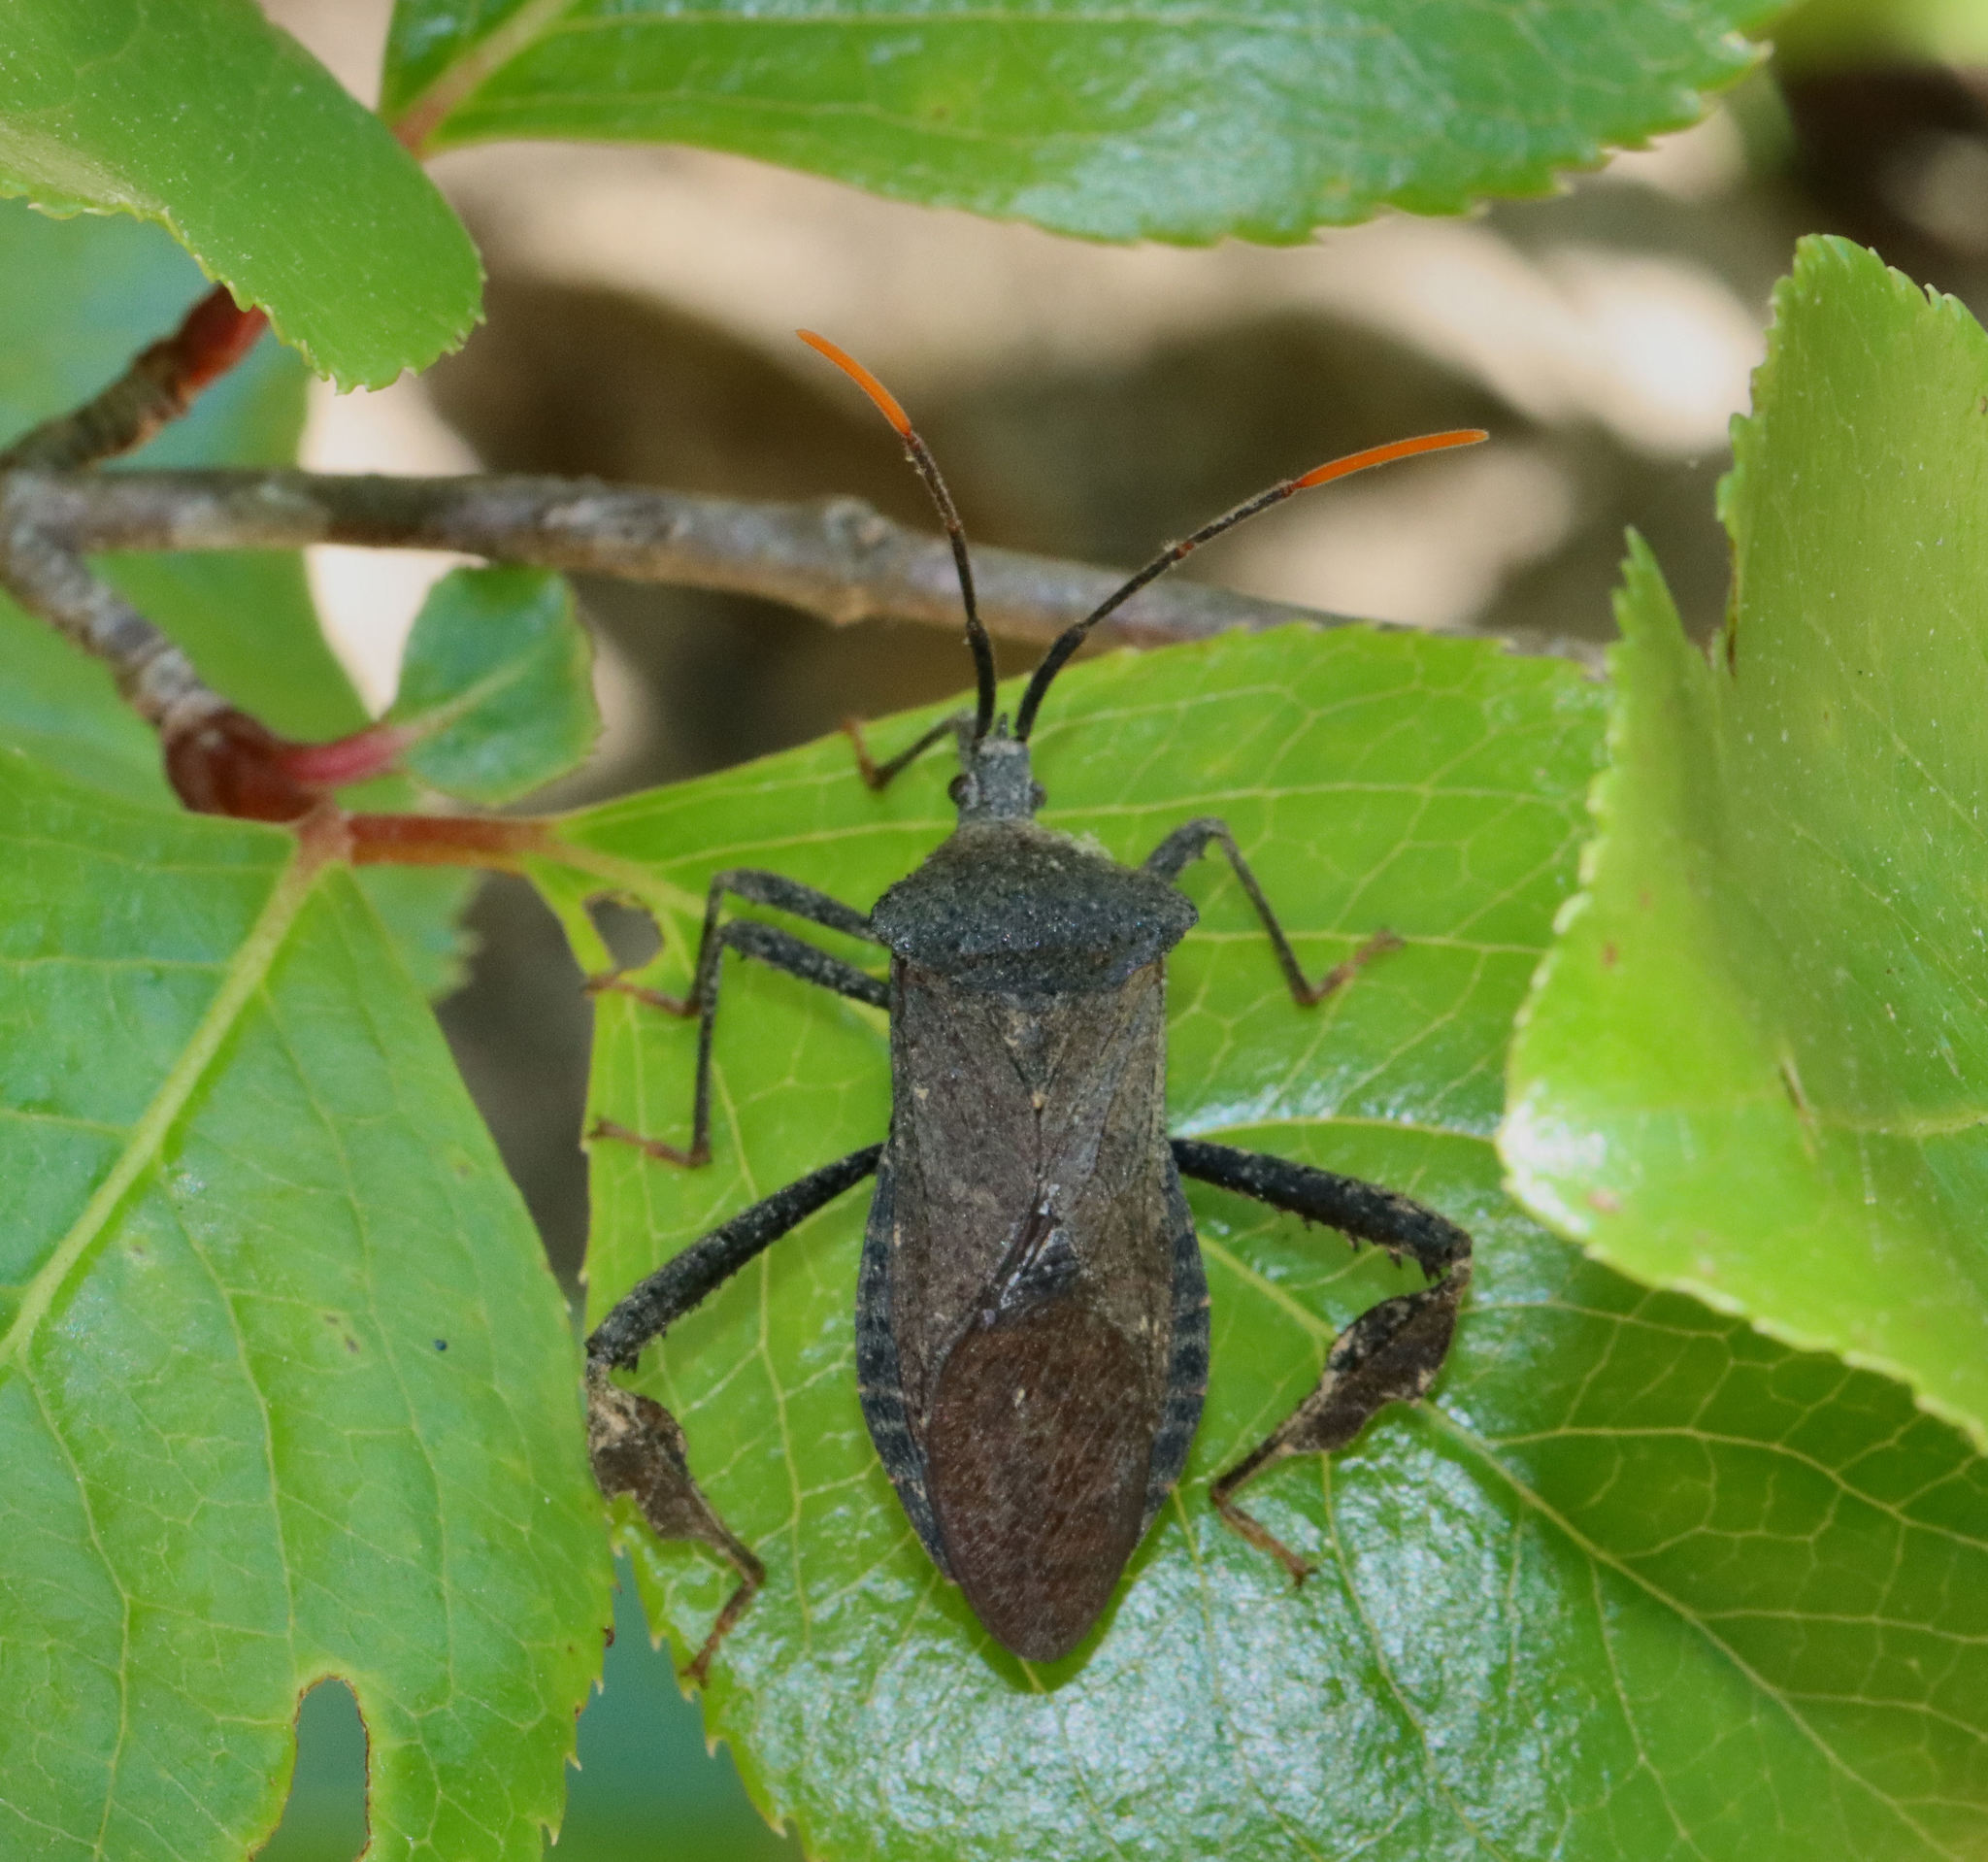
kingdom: Animalia
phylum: Arthropoda
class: Insecta
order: Hemiptera
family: Coreidae
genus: Acanthocephala
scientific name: Acanthocephala terminalis
